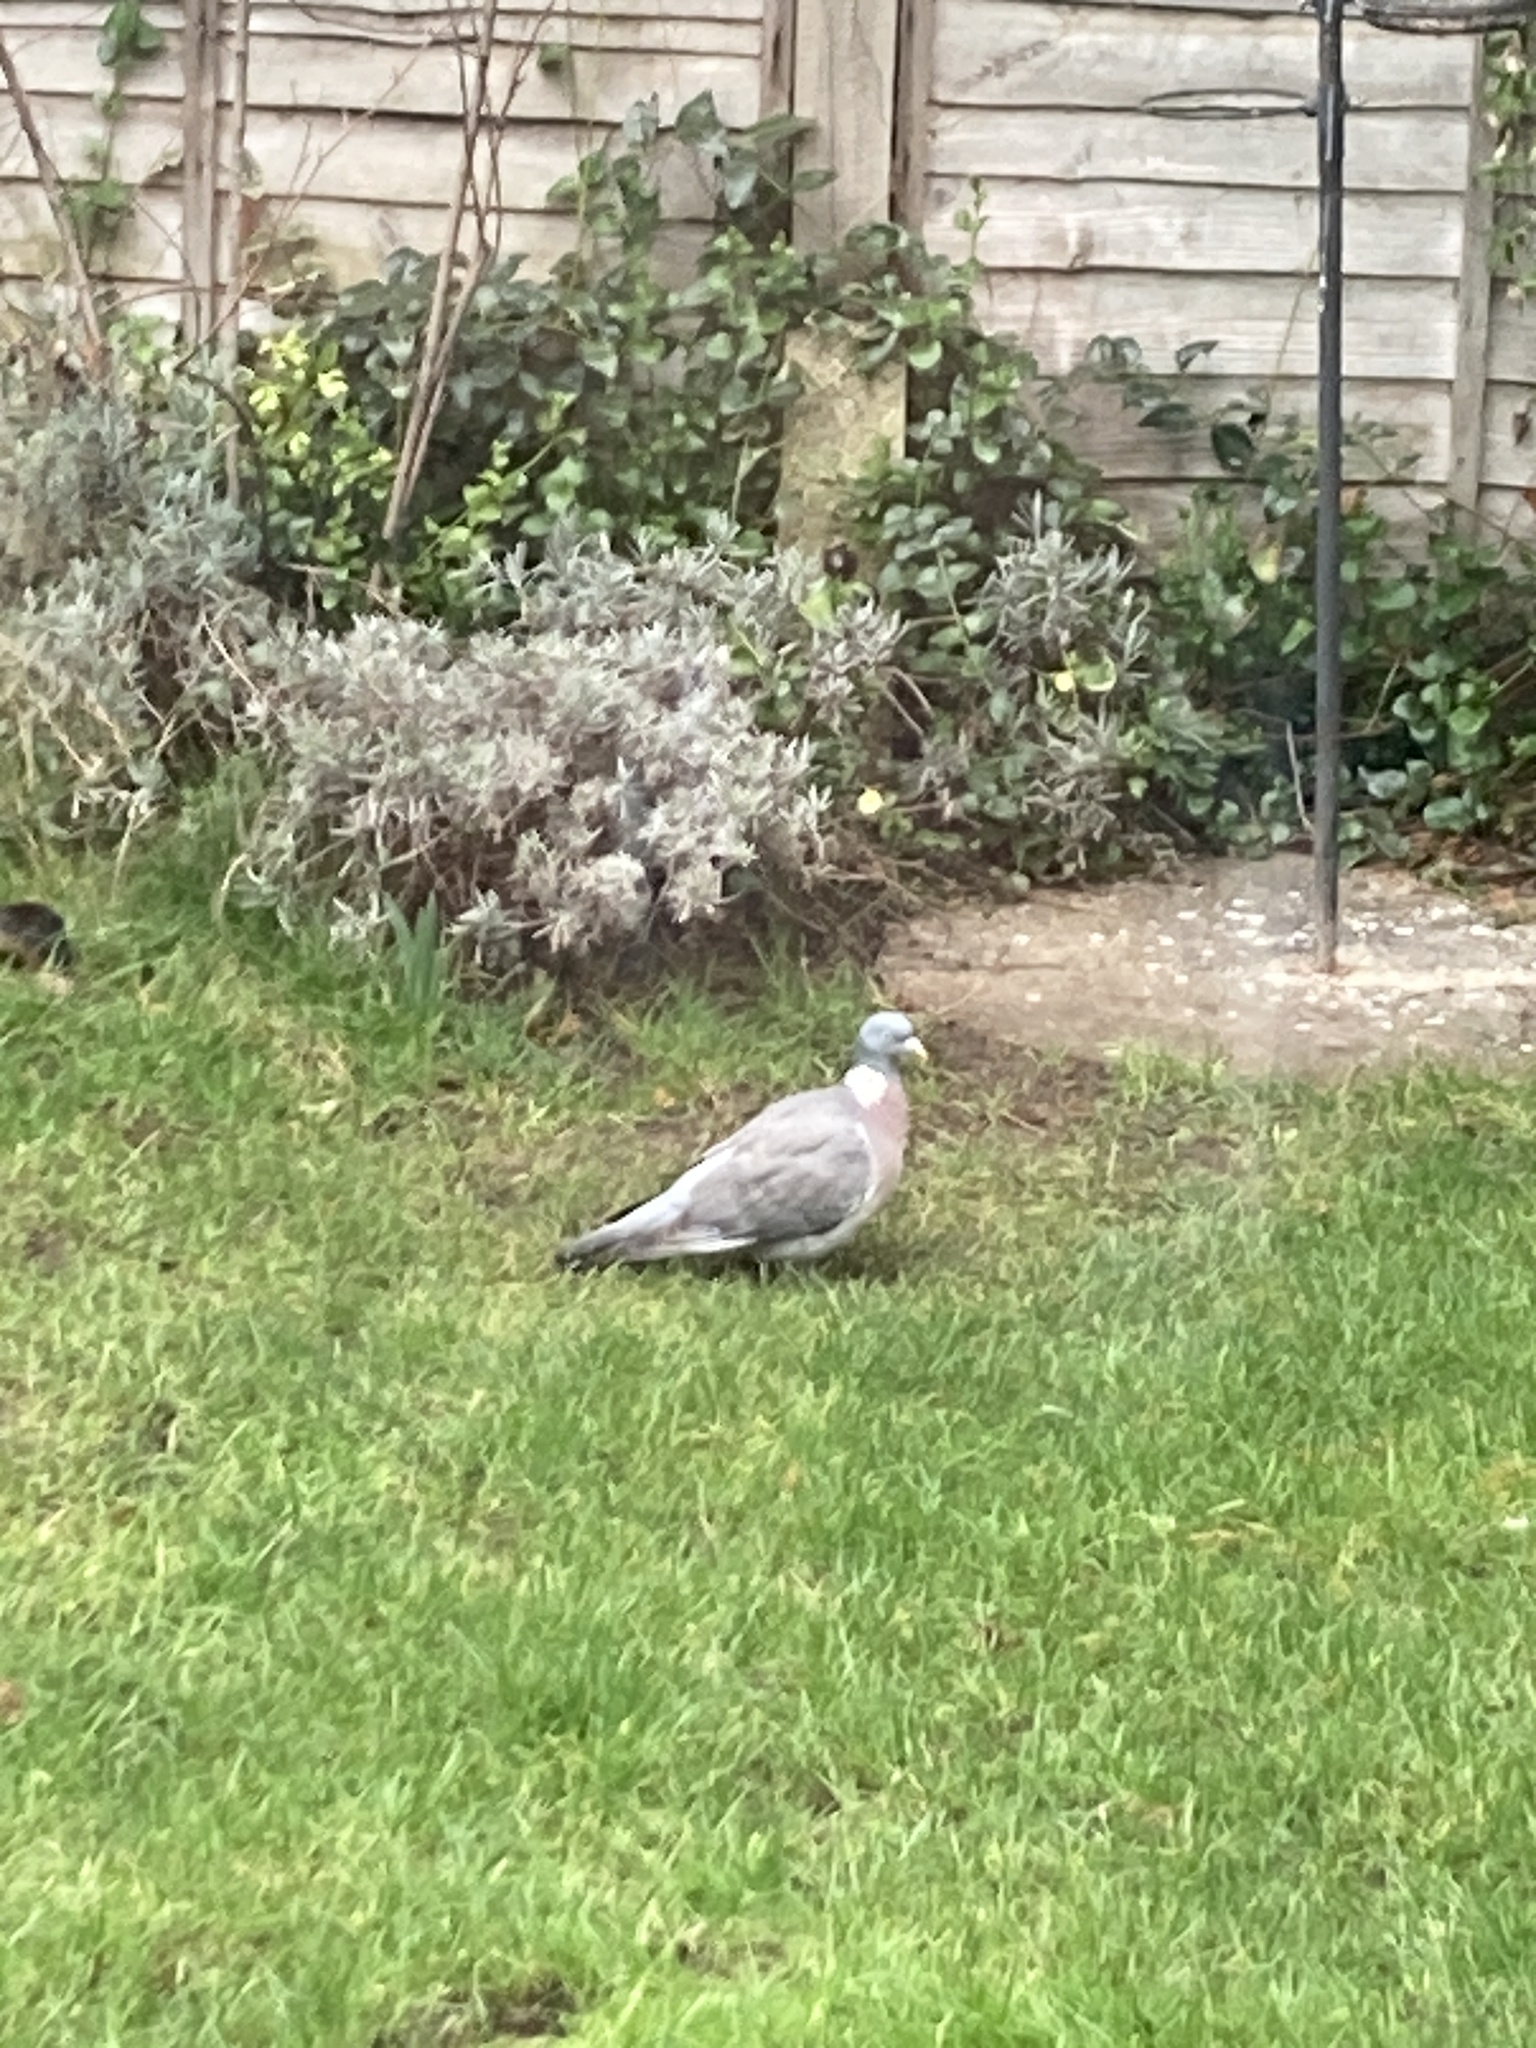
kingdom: Animalia
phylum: Chordata
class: Aves
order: Columbiformes
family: Columbidae
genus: Columba
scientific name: Columba palumbus
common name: Common wood pigeon
